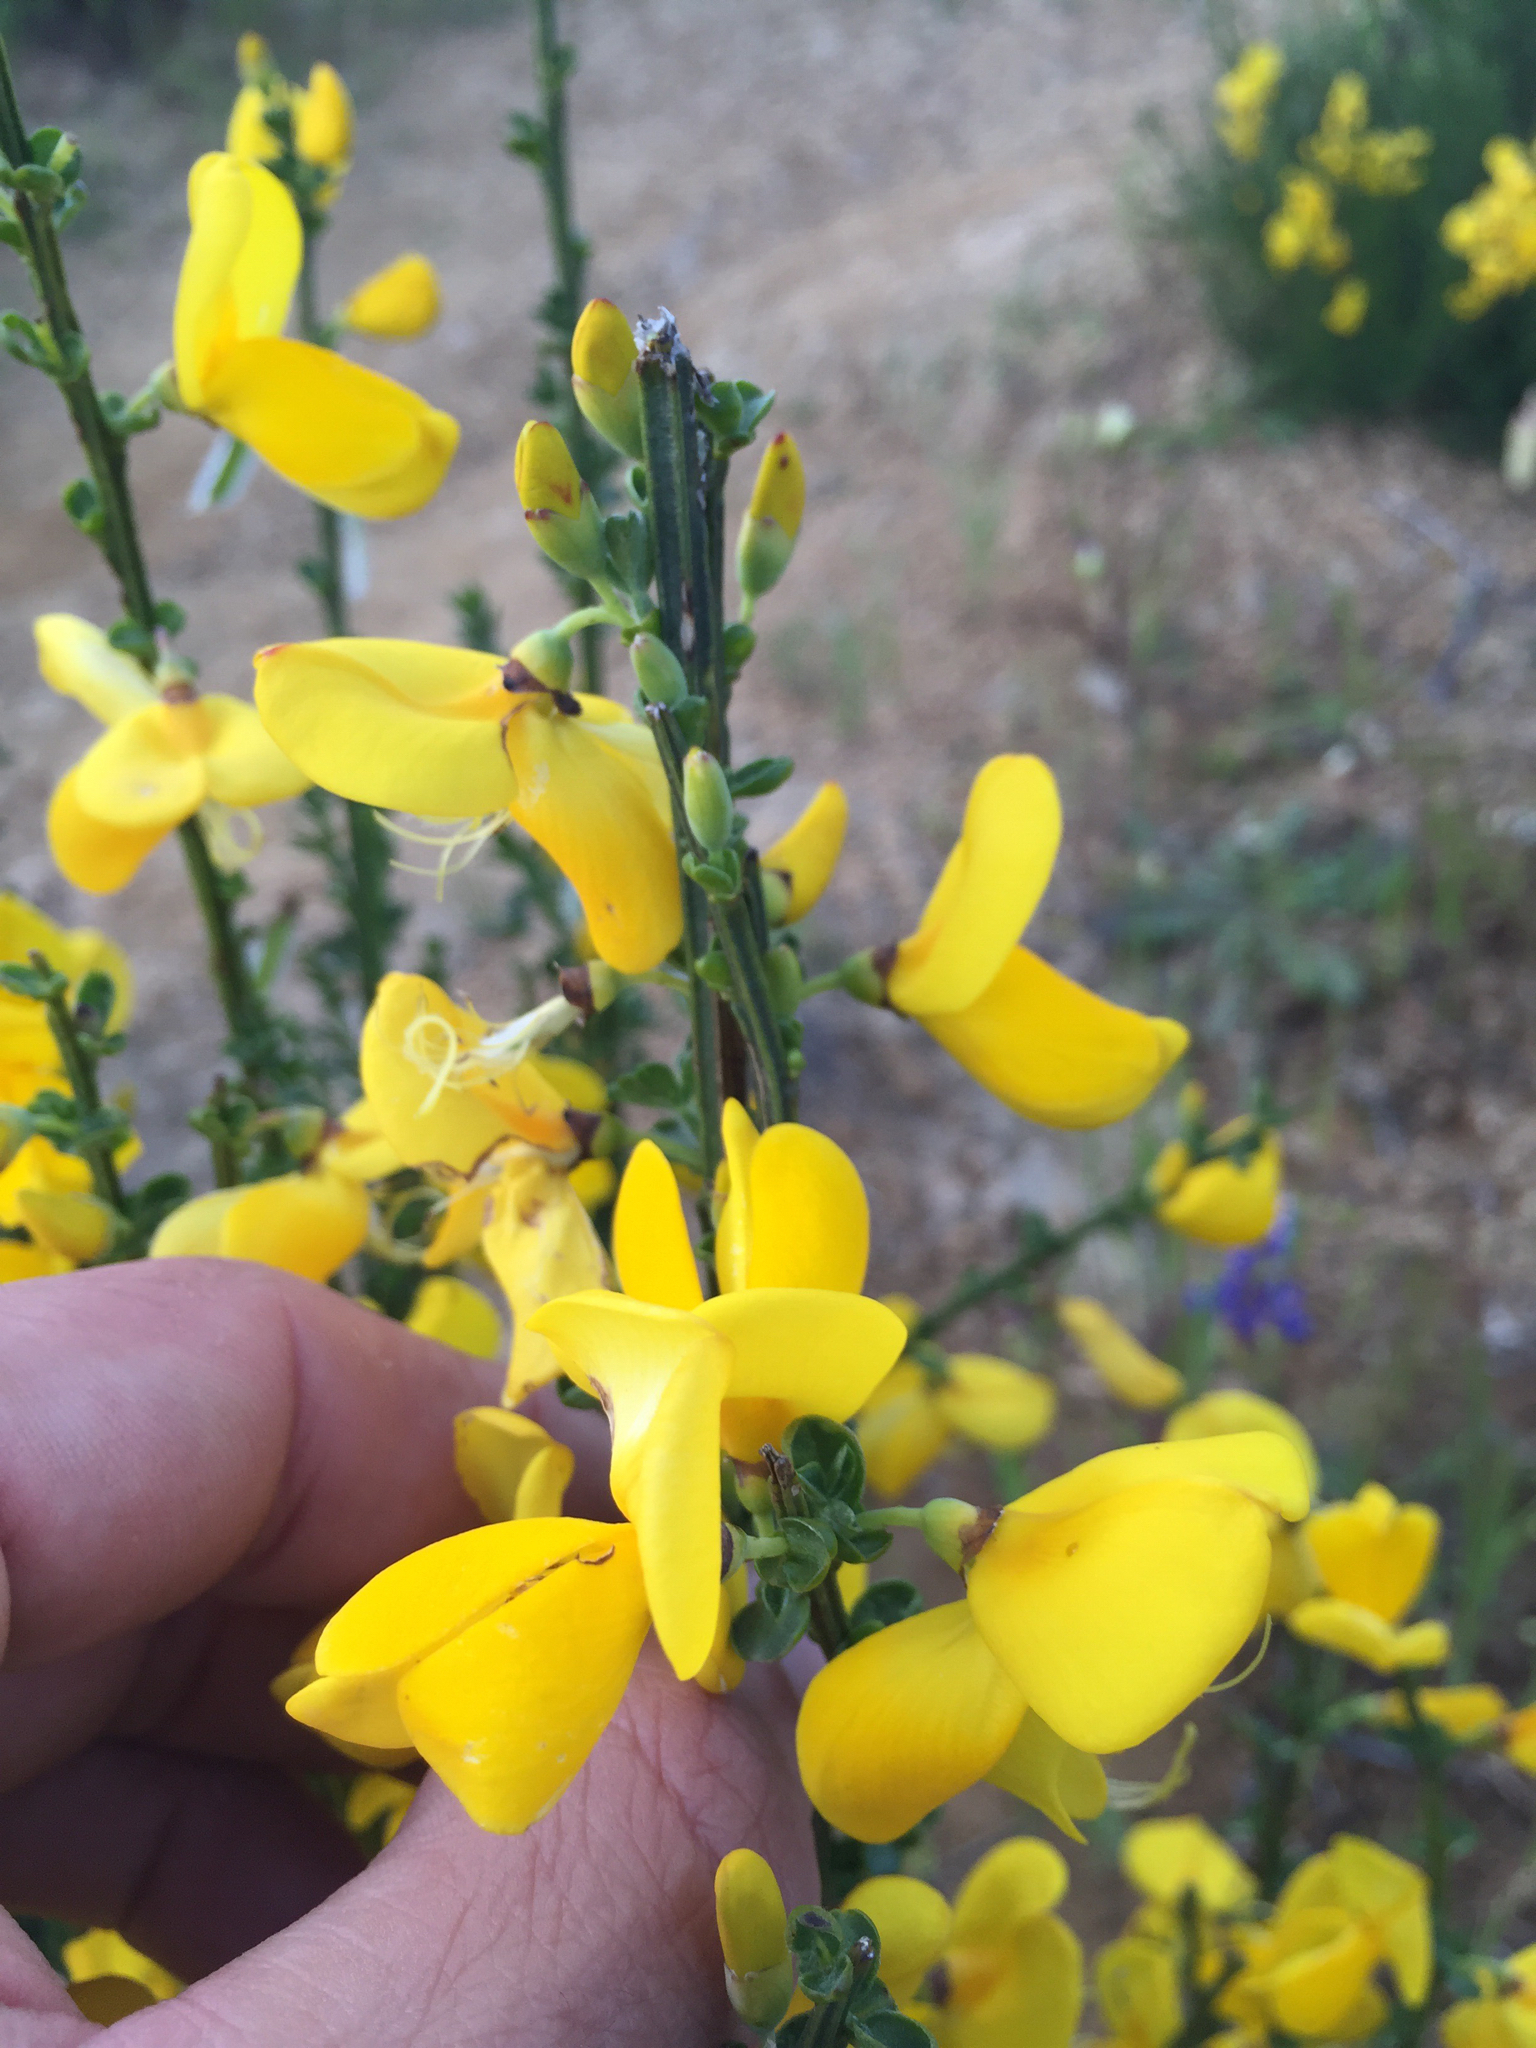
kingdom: Plantae
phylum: Tracheophyta
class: Magnoliopsida
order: Fabales
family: Fabaceae
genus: Cytisus
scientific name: Cytisus scoparius
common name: Scotch broom
